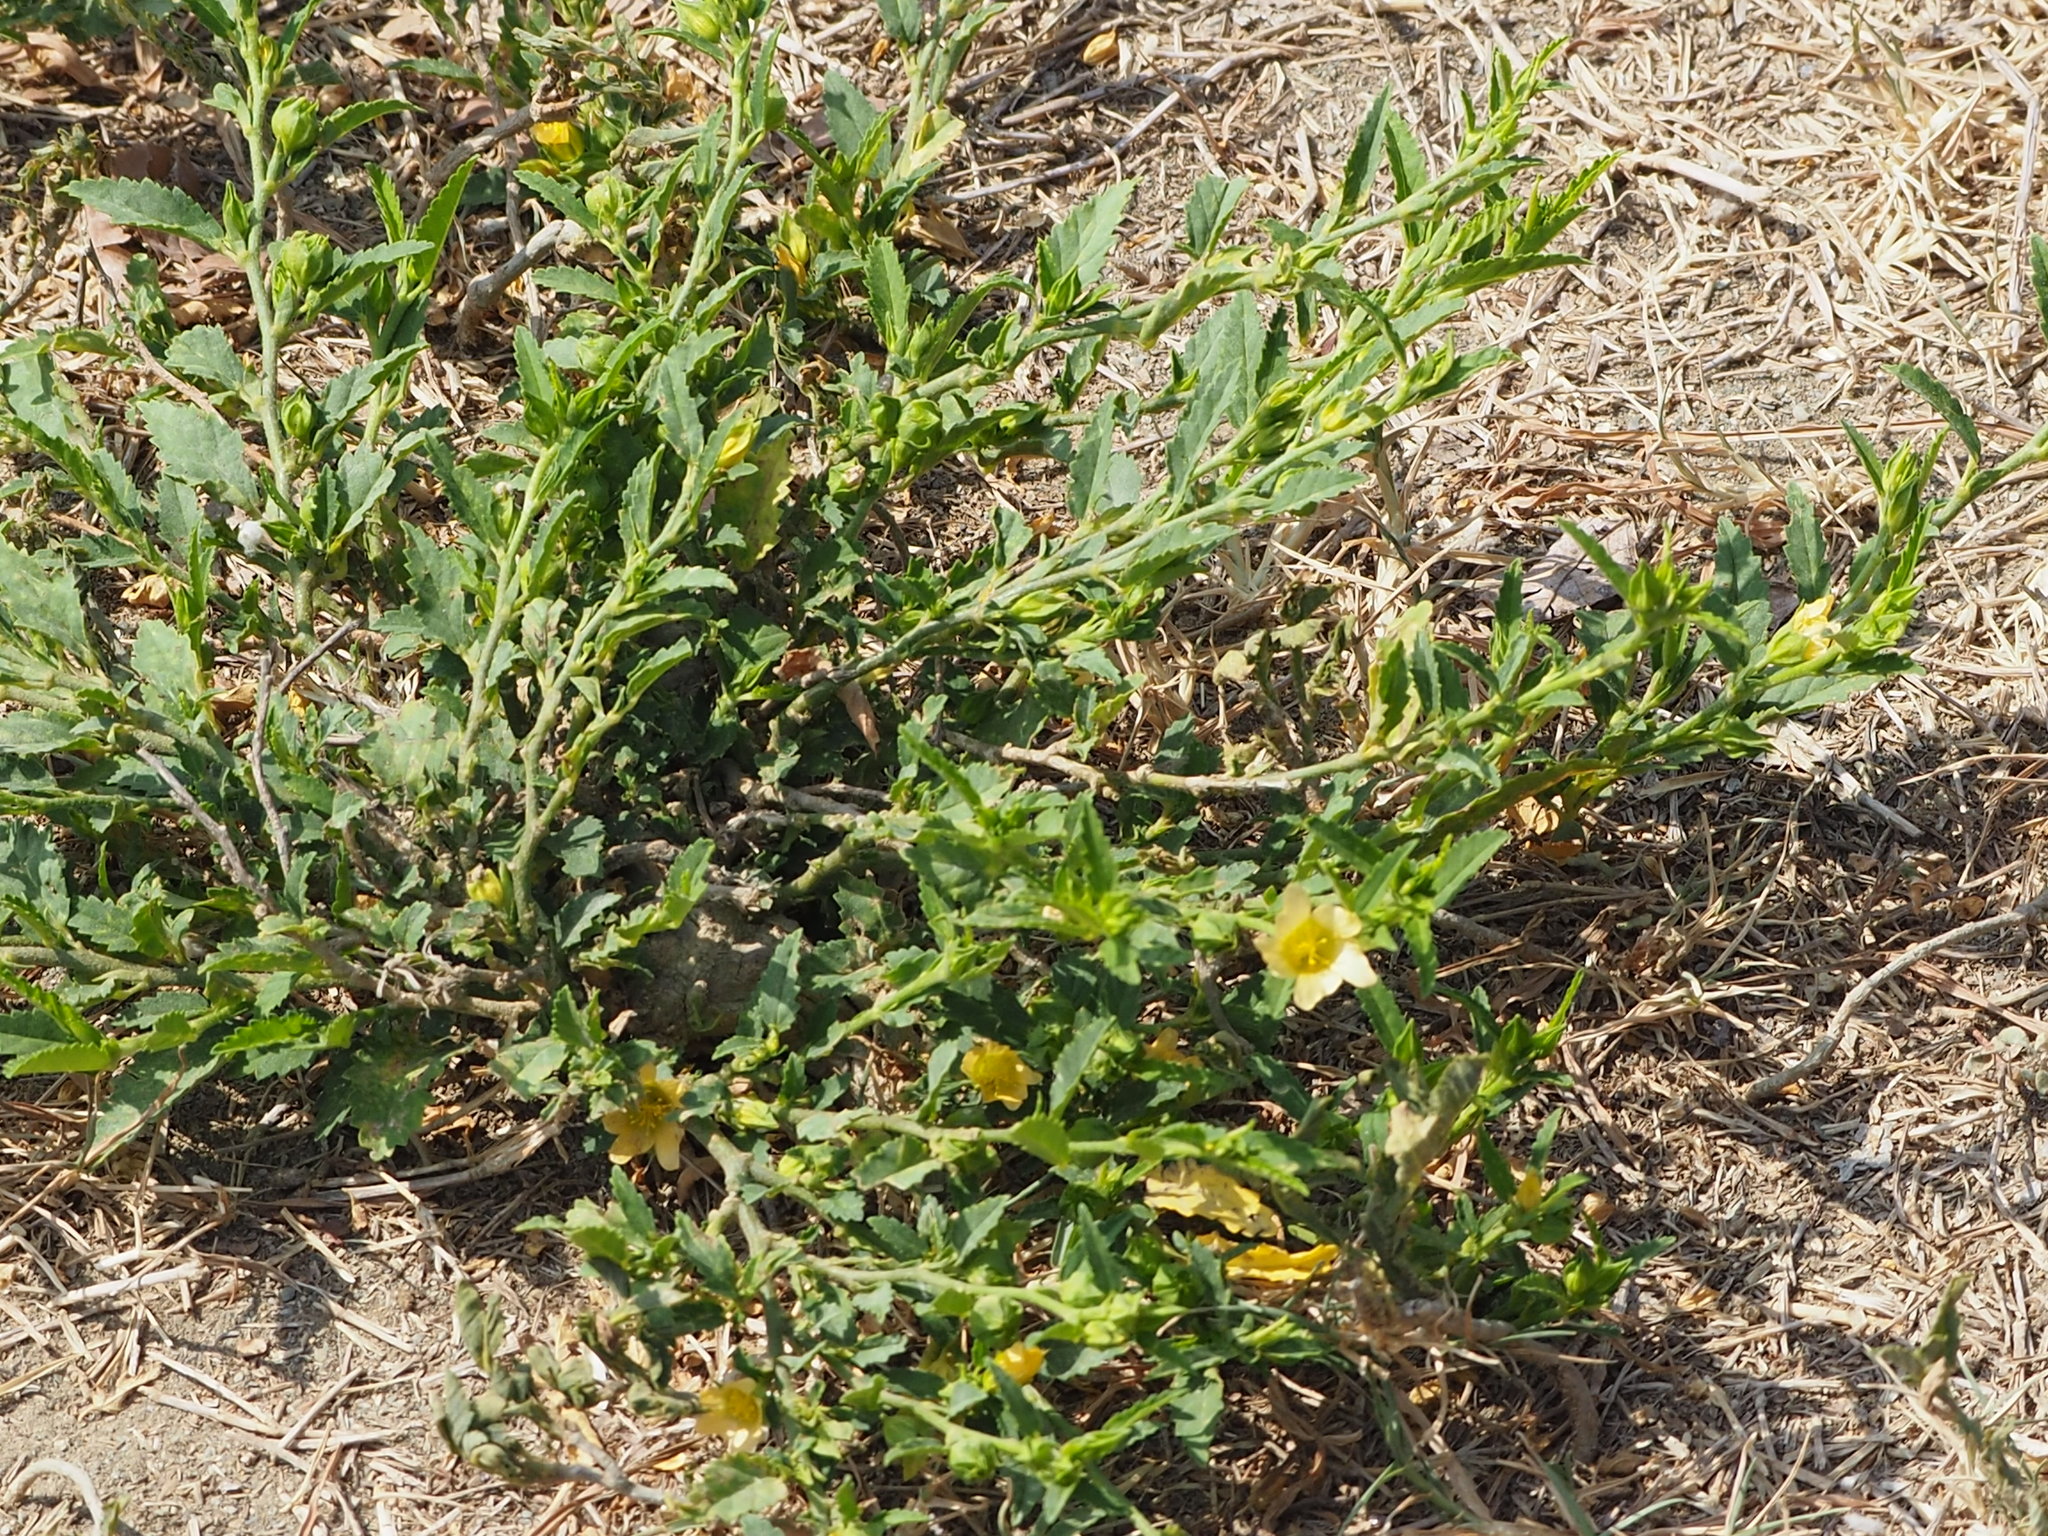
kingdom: Plantae
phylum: Tracheophyta
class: Magnoliopsida
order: Malvales
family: Malvaceae
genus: Sida
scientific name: Sida rhombifolia
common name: Queensland-hemp
